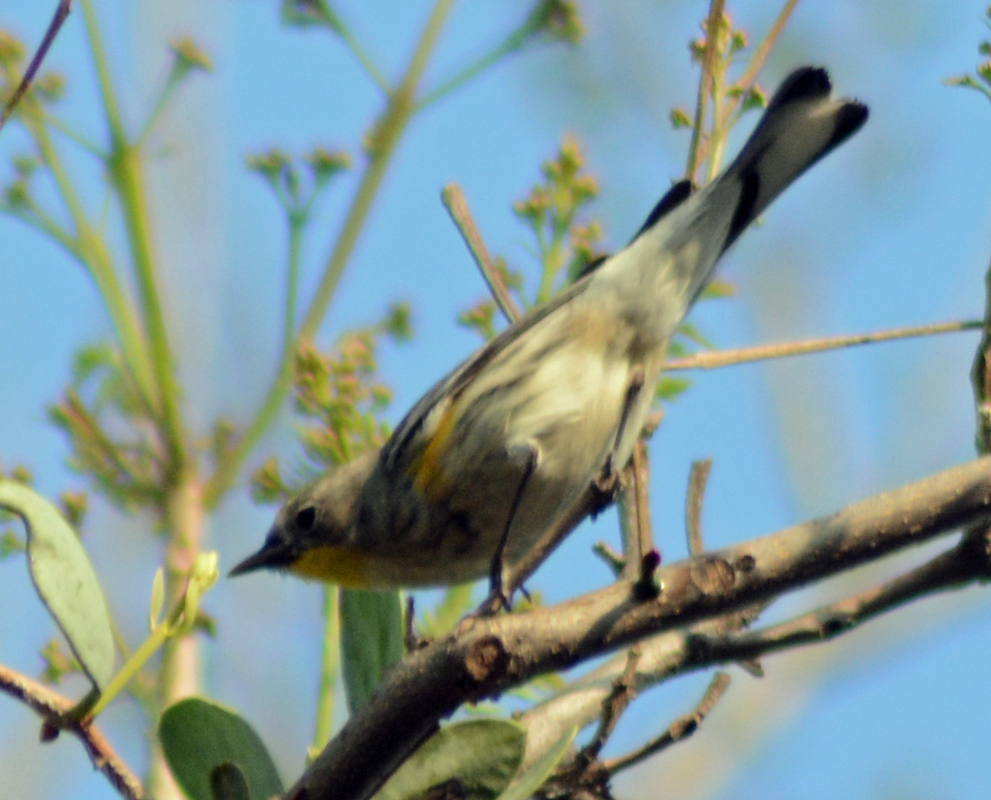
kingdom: Animalia
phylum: Chordata
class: Aves
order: Passeriformes
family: Parulidae
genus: Setophaga
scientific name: Setophaga coronata
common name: Myrtle warbler
